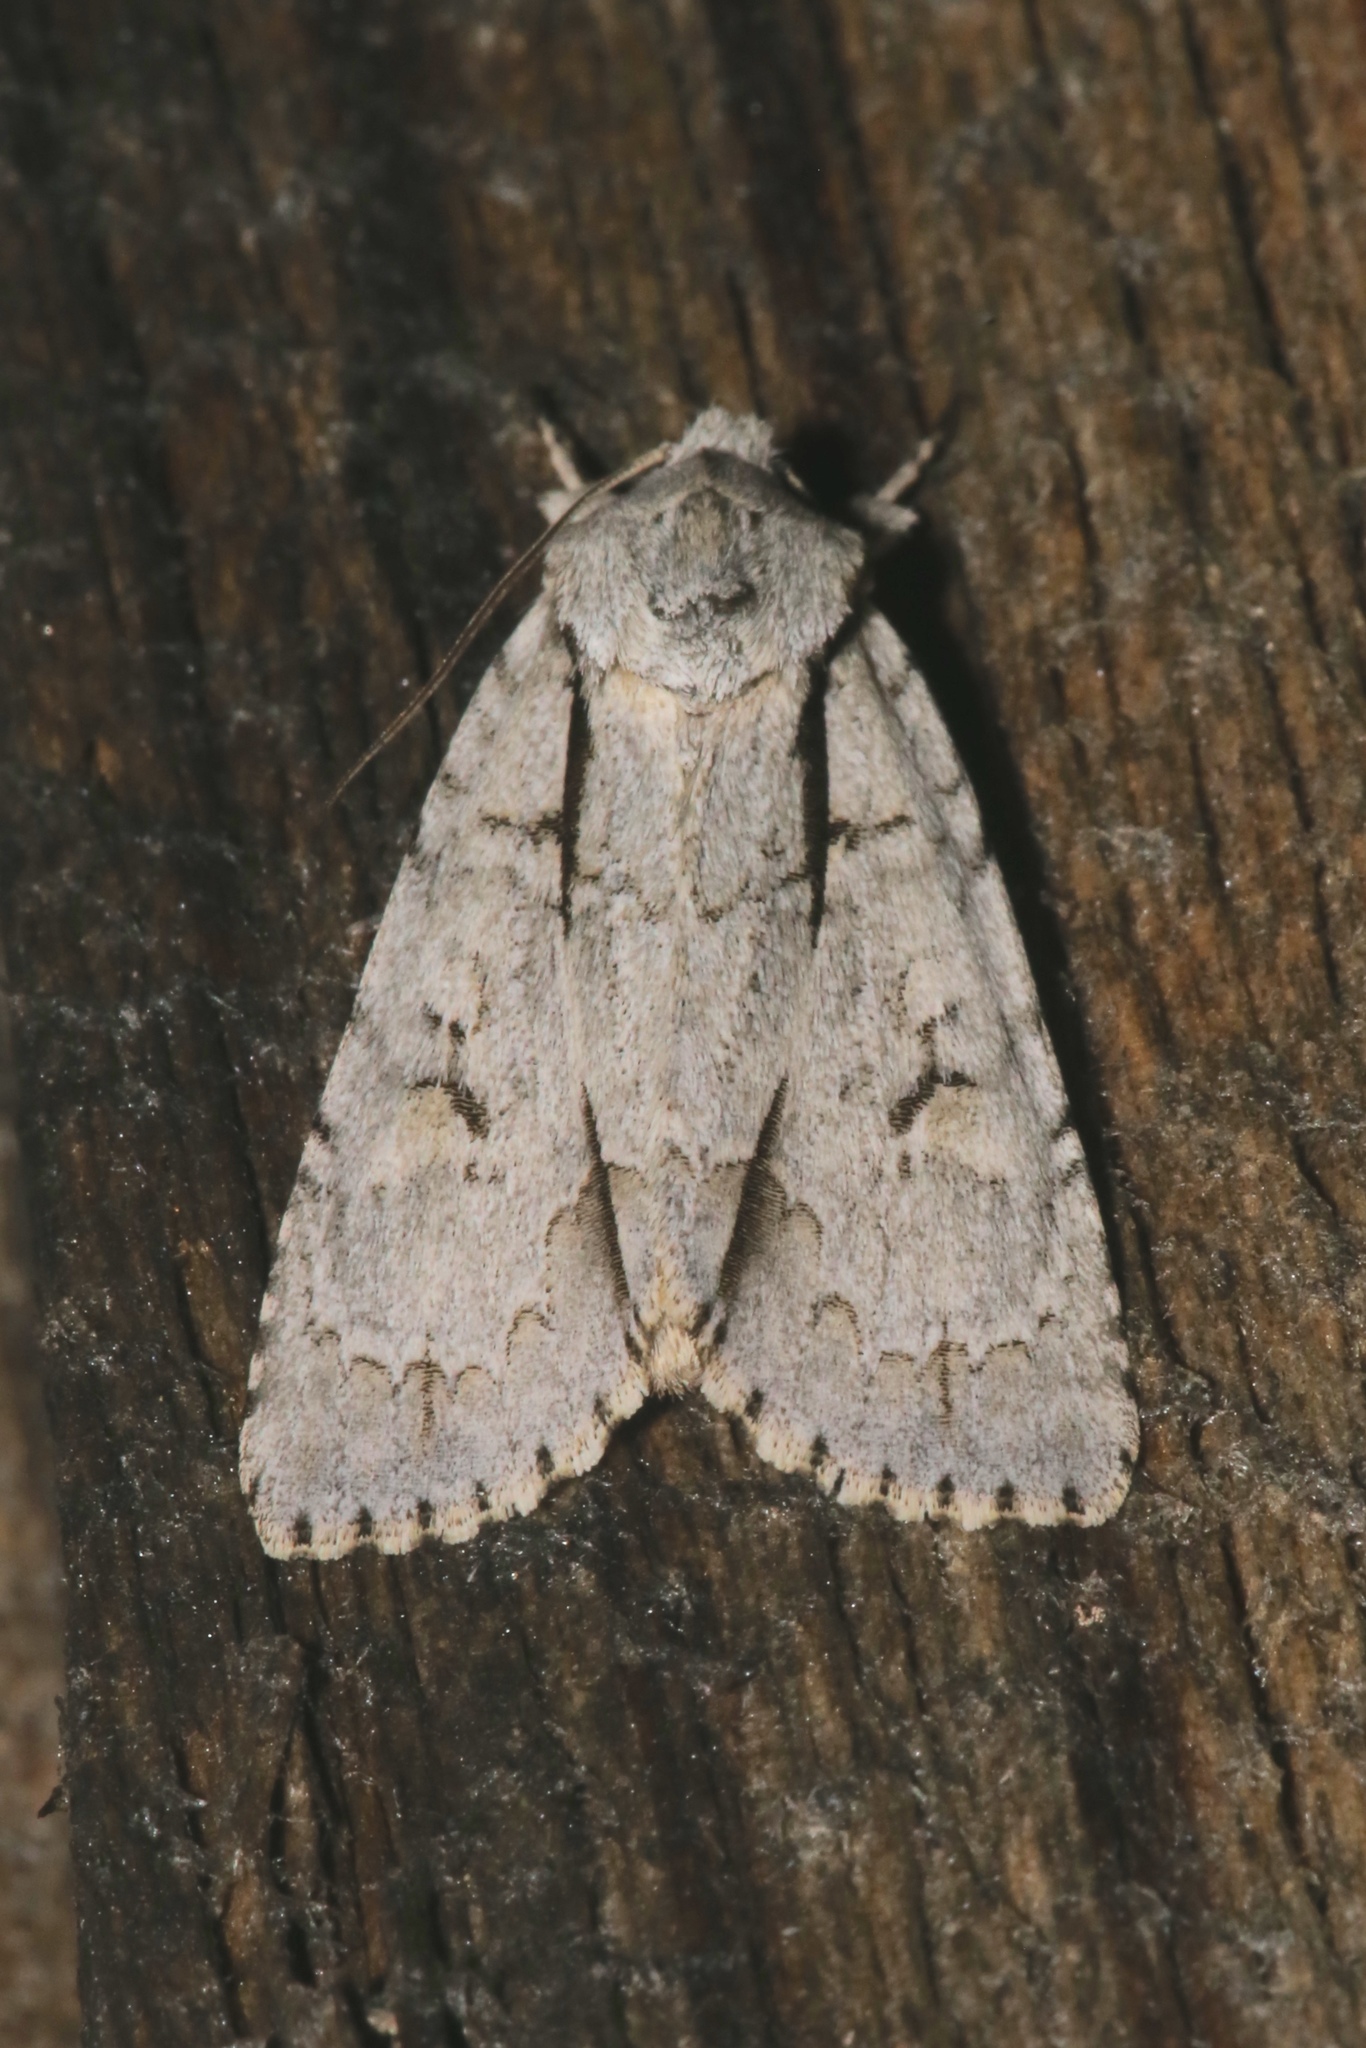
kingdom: Animalia
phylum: Arthropoda
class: Insecta
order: Lepidoptera
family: Noctuidae
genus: Acronicta
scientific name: Acronicta interrupta
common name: Interrupted dagger
